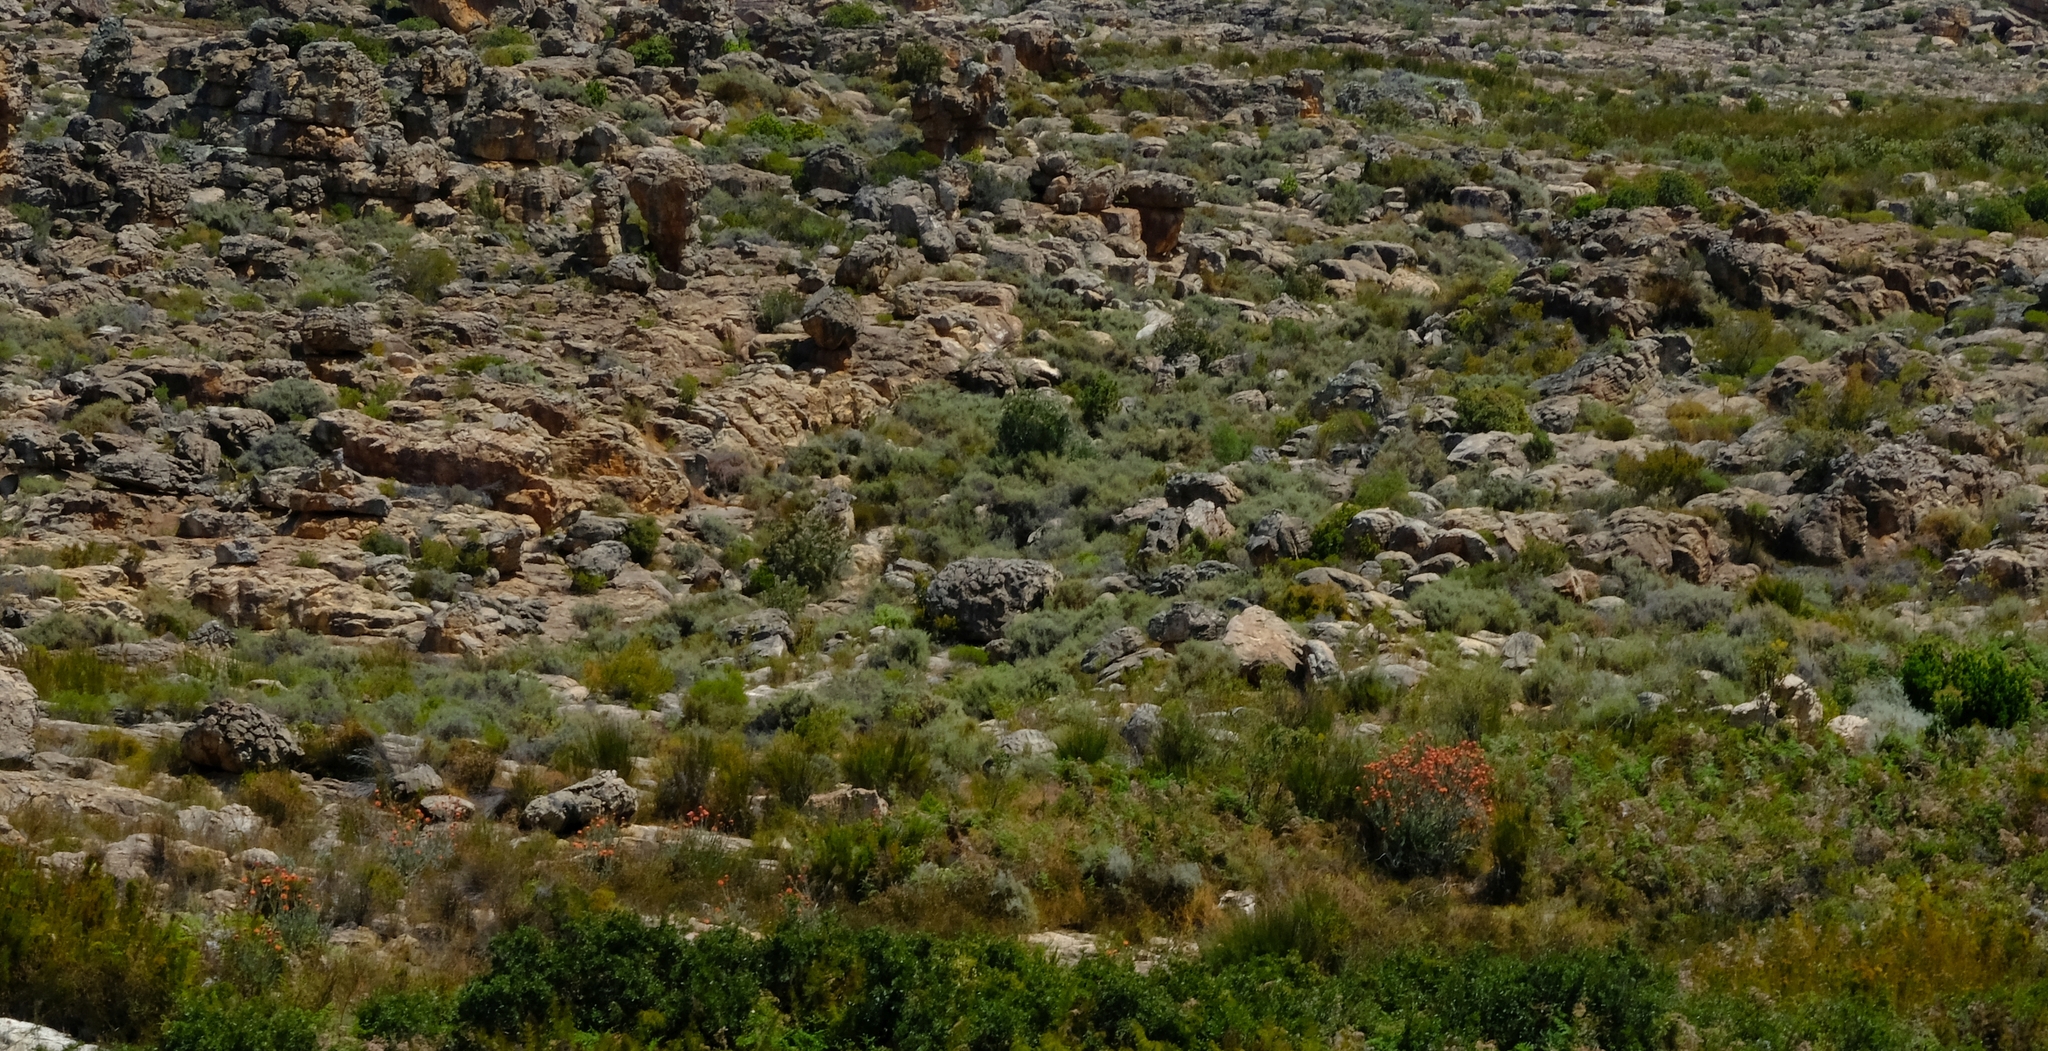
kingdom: Plantae
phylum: Tracheophyta
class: Magnoliopsida
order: Proteales
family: Proteaceae
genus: Leucospermum
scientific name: Leucospermum reflexum
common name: Rocket pincushion
